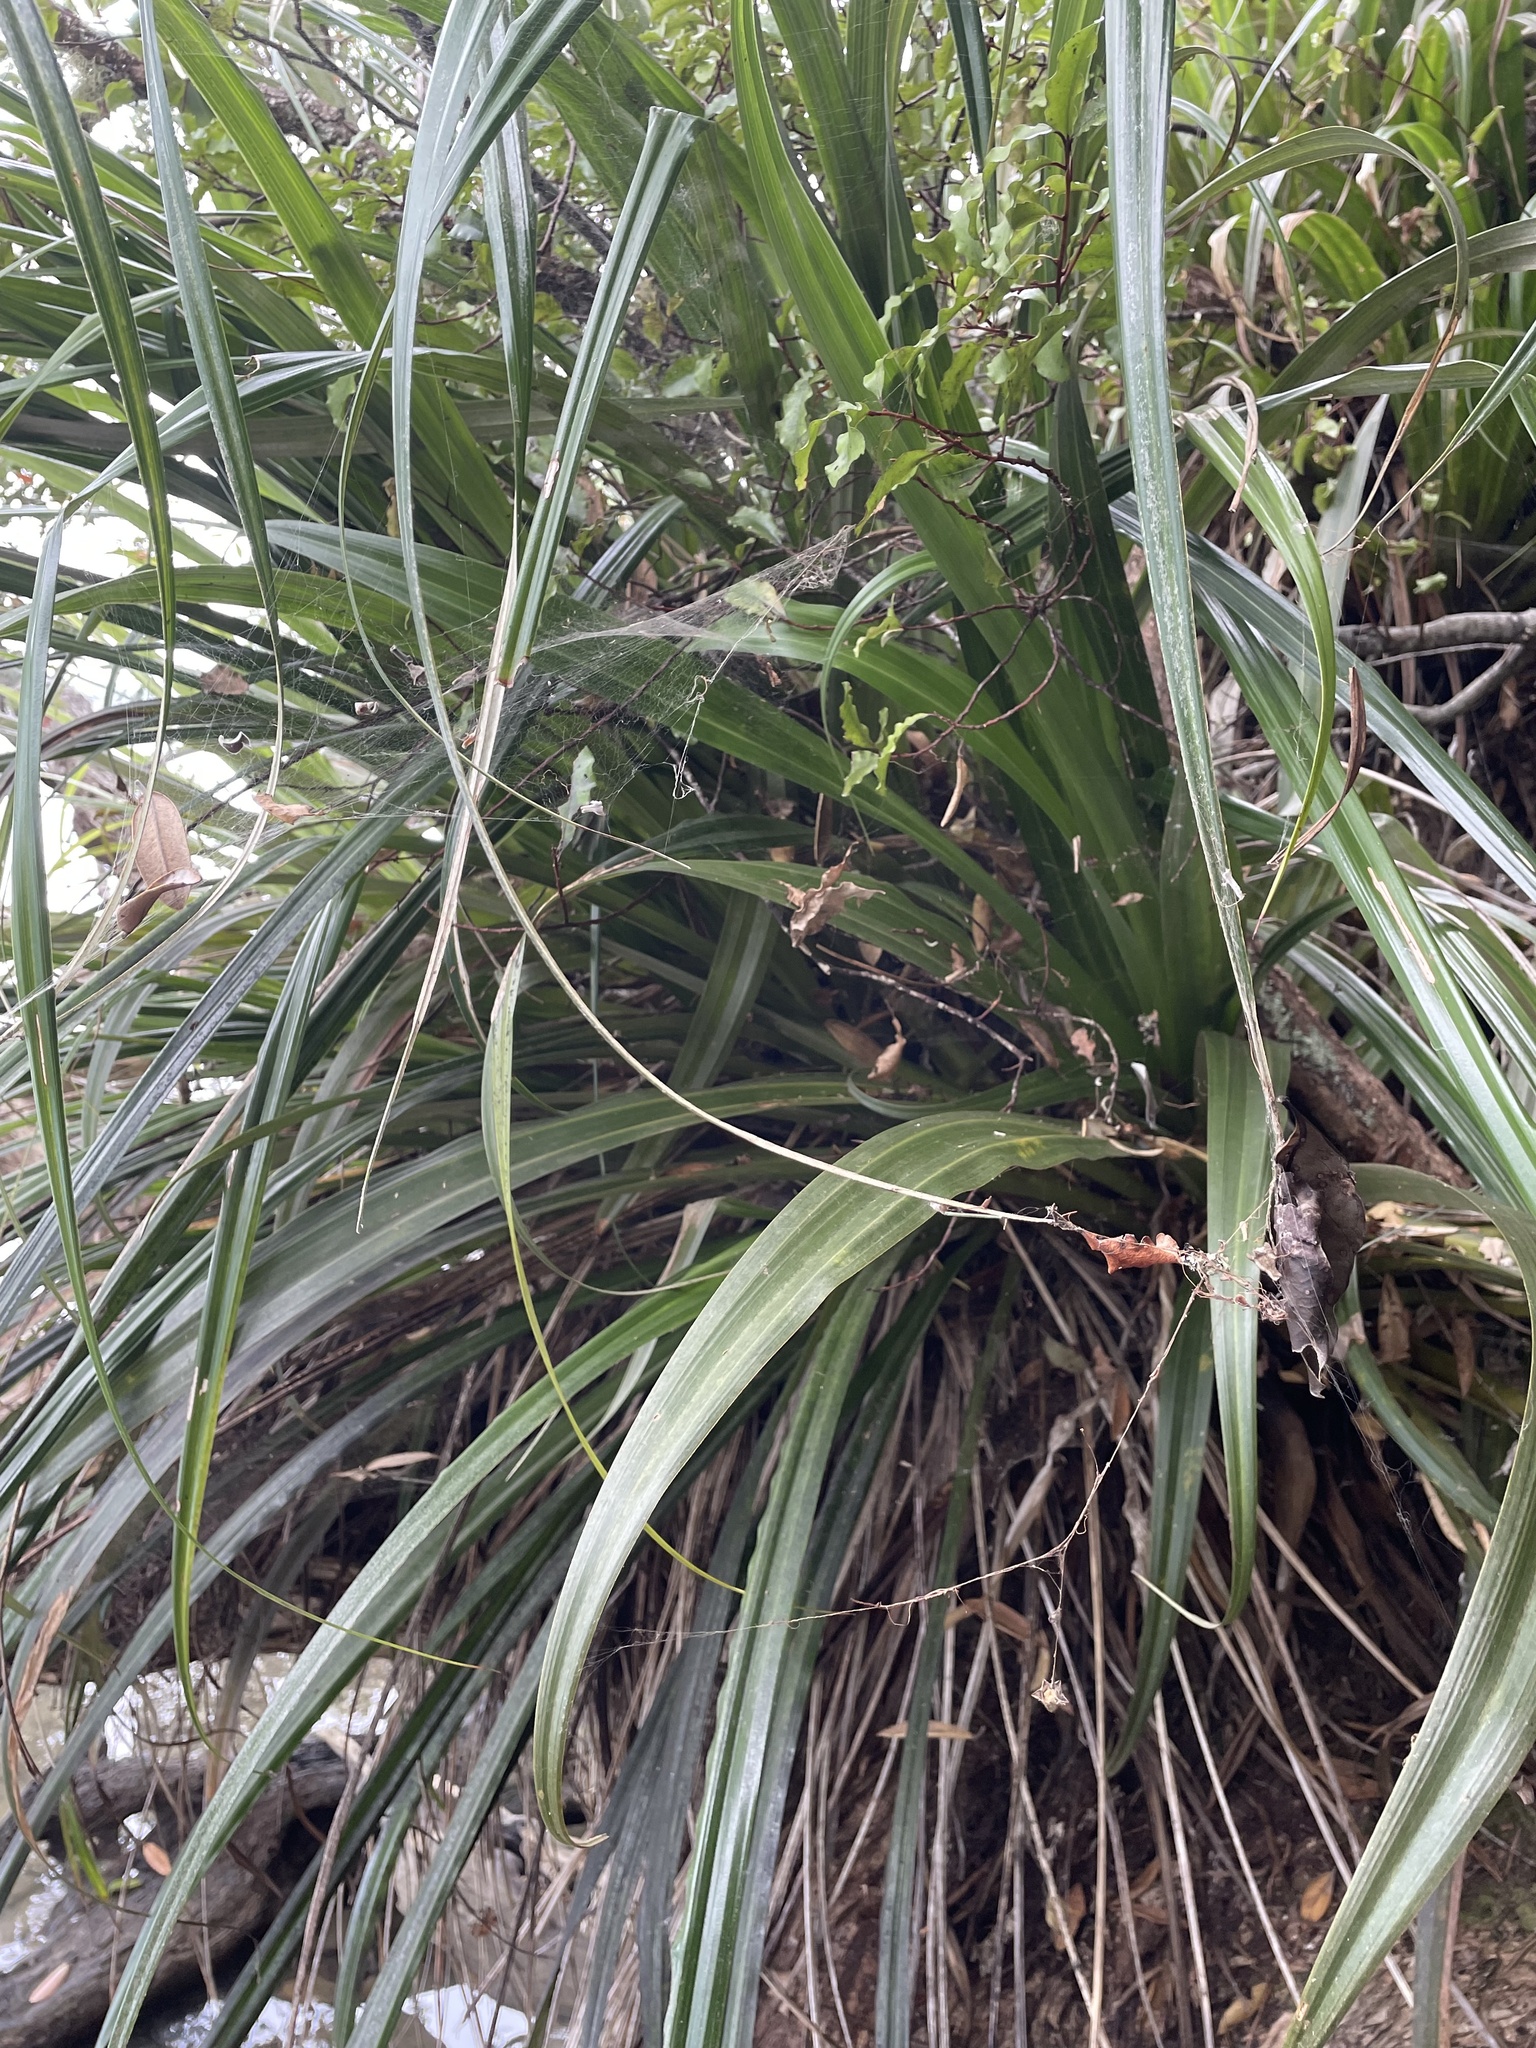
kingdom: Plantae
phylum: Tracheophyta
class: Liliopsida
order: Asparagales
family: Asteliaceae
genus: Astelia
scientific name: Astelia hastata
